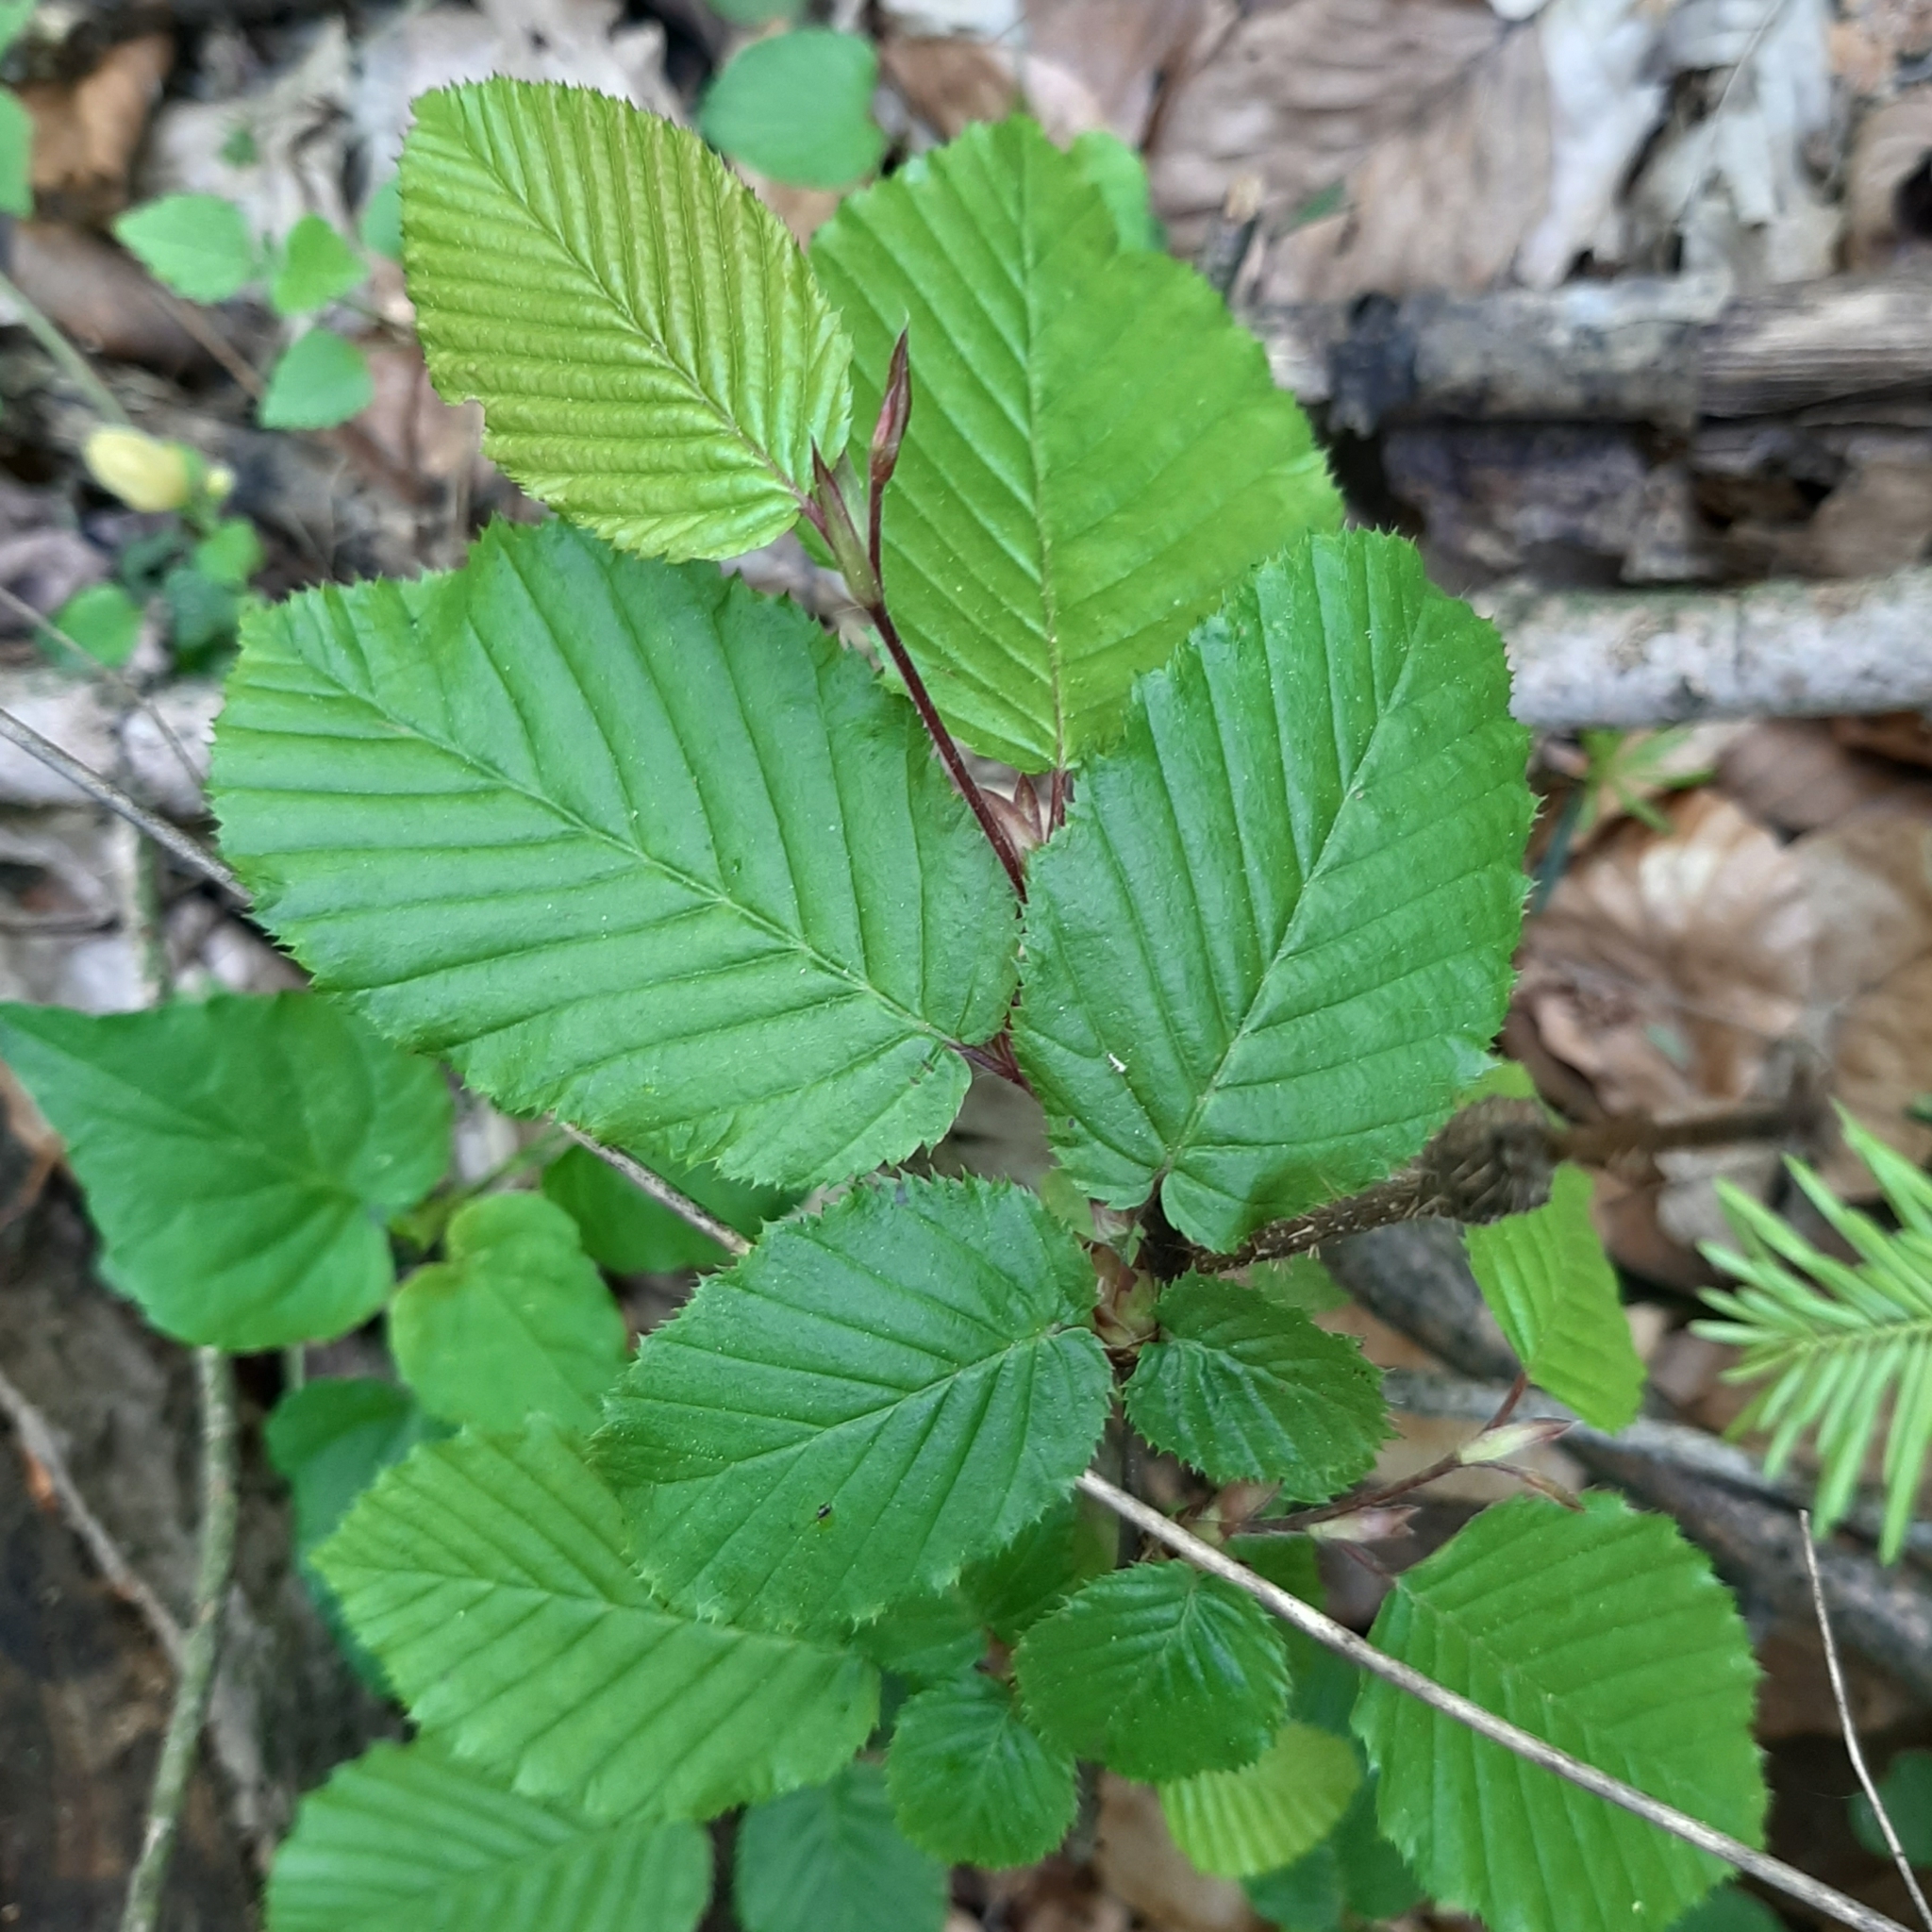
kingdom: Plantae
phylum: Tracheophyta
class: Magnoliopsida
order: Fagales
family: Betulaceae
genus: Carpinus
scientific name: Carpinus betulus
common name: Hornbeam
